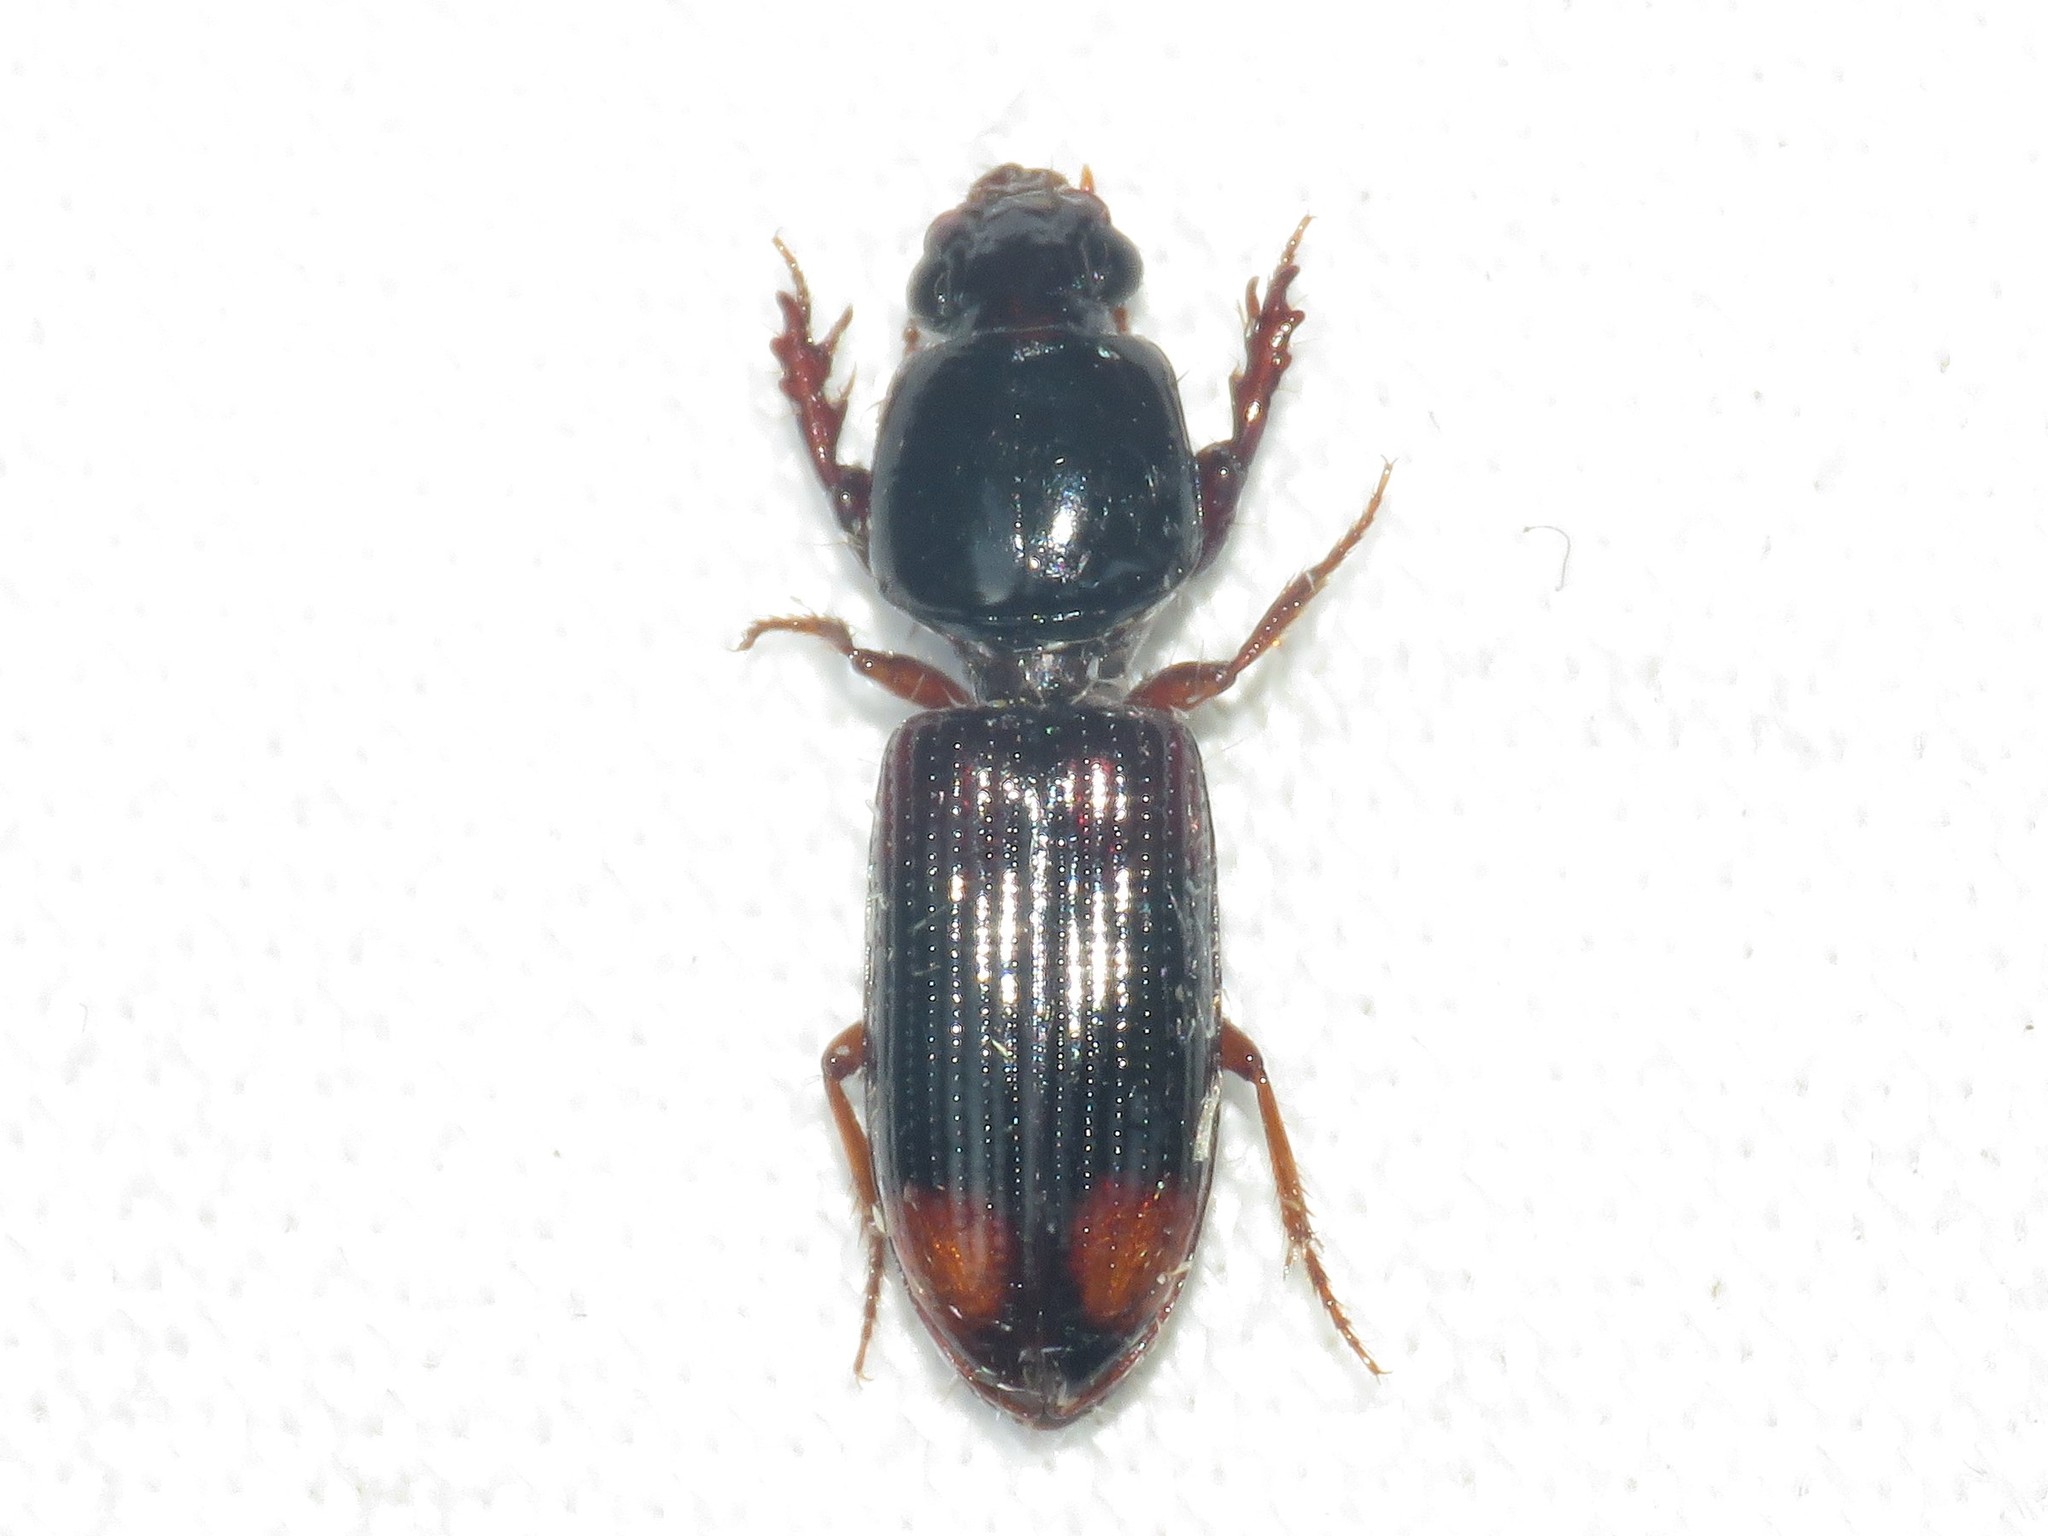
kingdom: Animalia
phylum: Arthropoda
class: Insecta
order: Coleoptera
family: Carabidae
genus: Clivina
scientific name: Clivina bipustulata
